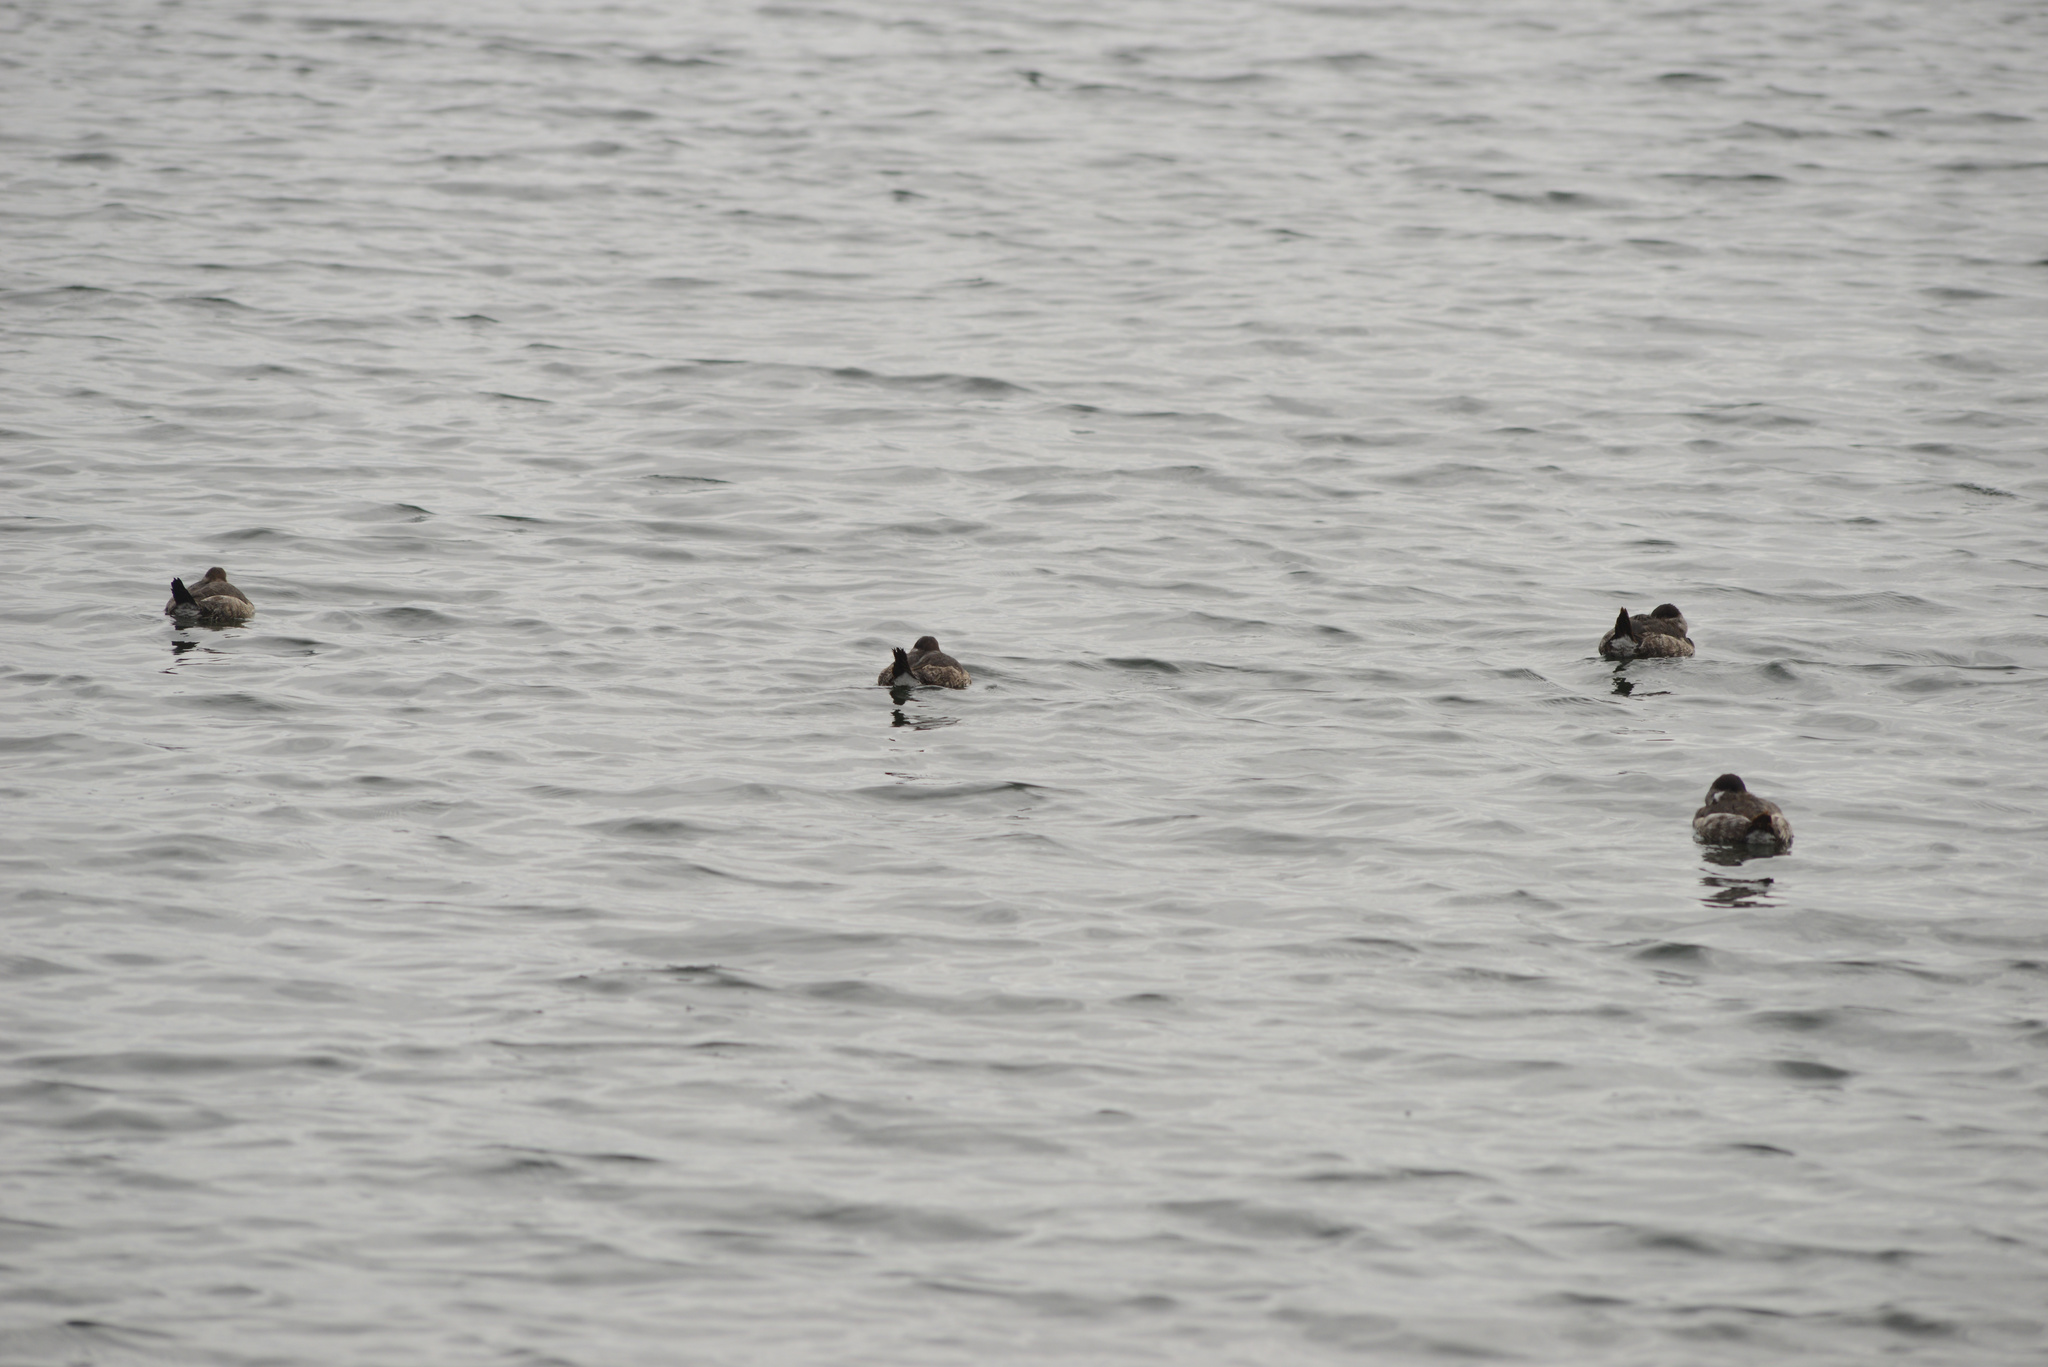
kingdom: Animalia
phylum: Chordata
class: Aves
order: Anseriformes
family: Anatidae
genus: Oxyura
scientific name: Oxyura jamaicensis
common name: Ruddy duck
